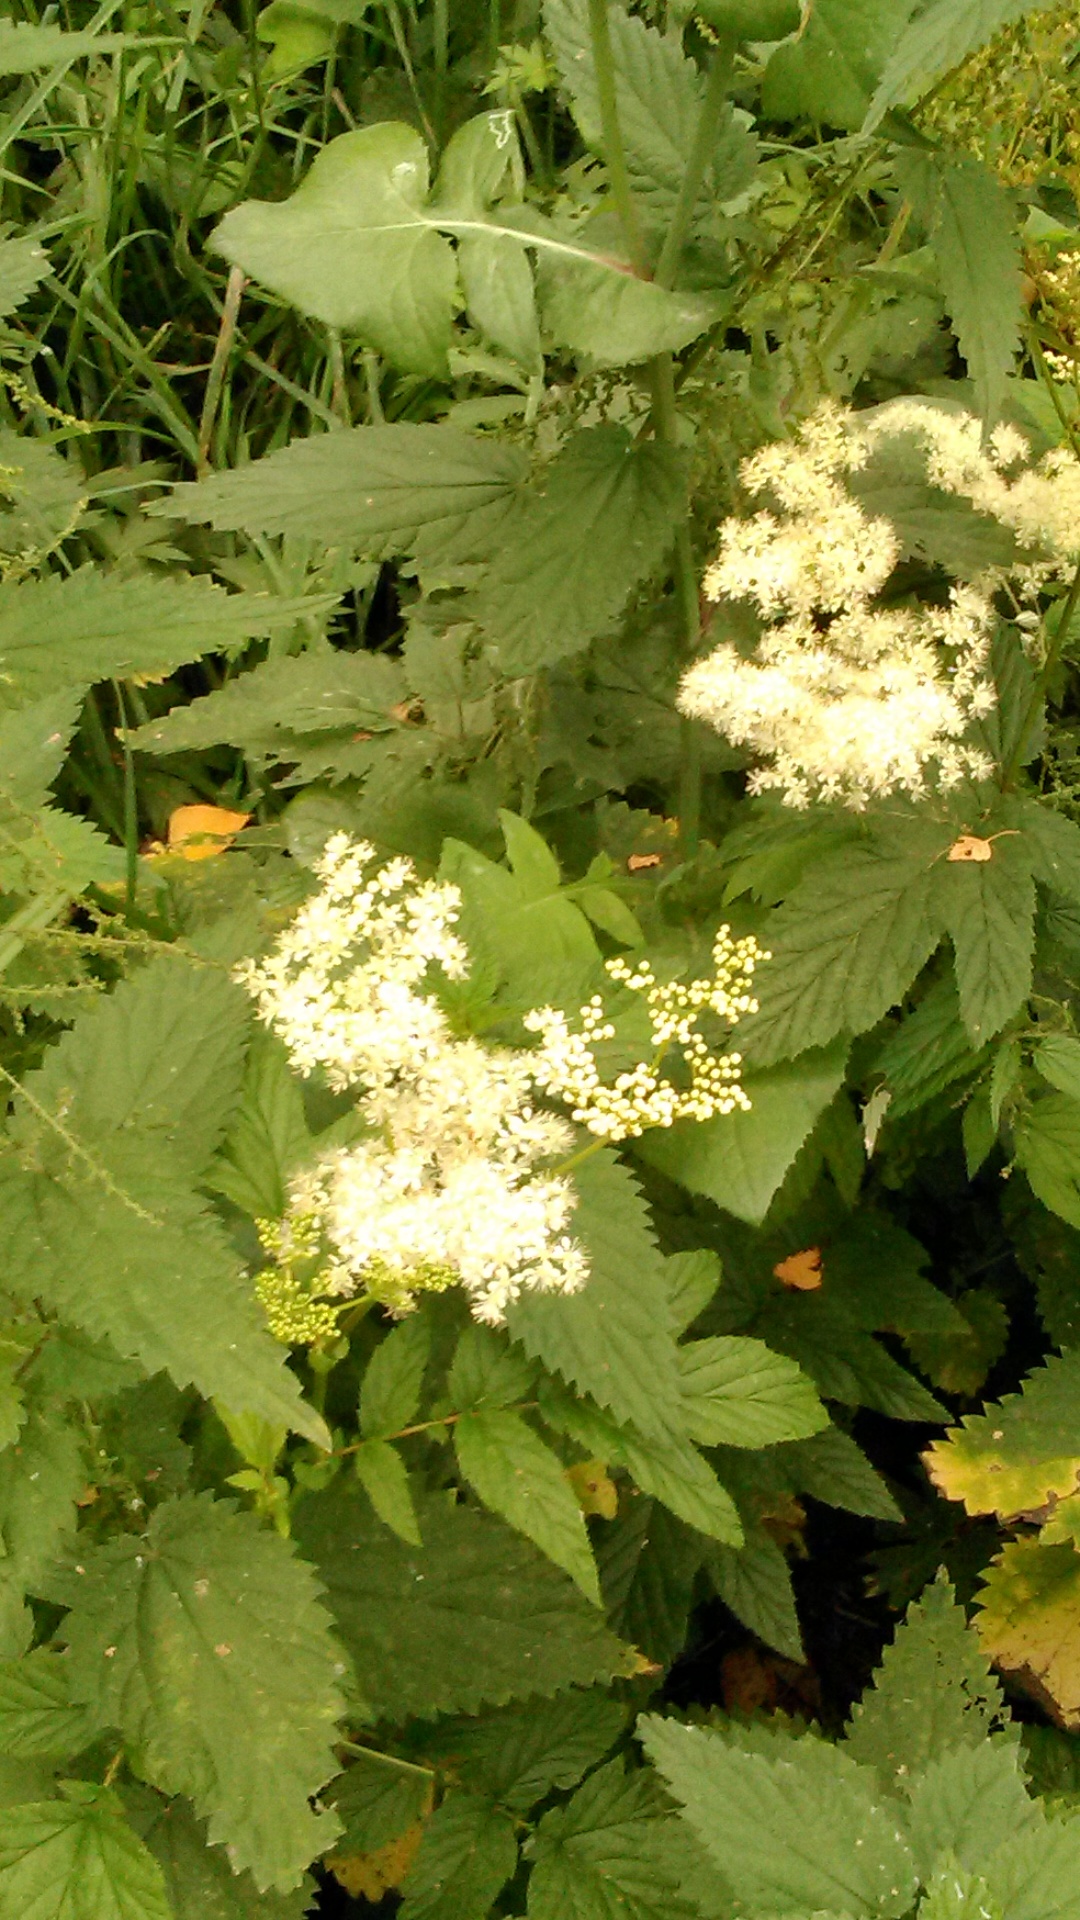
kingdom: Plantae
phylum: Tracheophyta
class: Magnoliopsida
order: Rosales
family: Rosaceae
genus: Filipendula
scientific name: Filipendula ulmaria
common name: Meadowsweet
